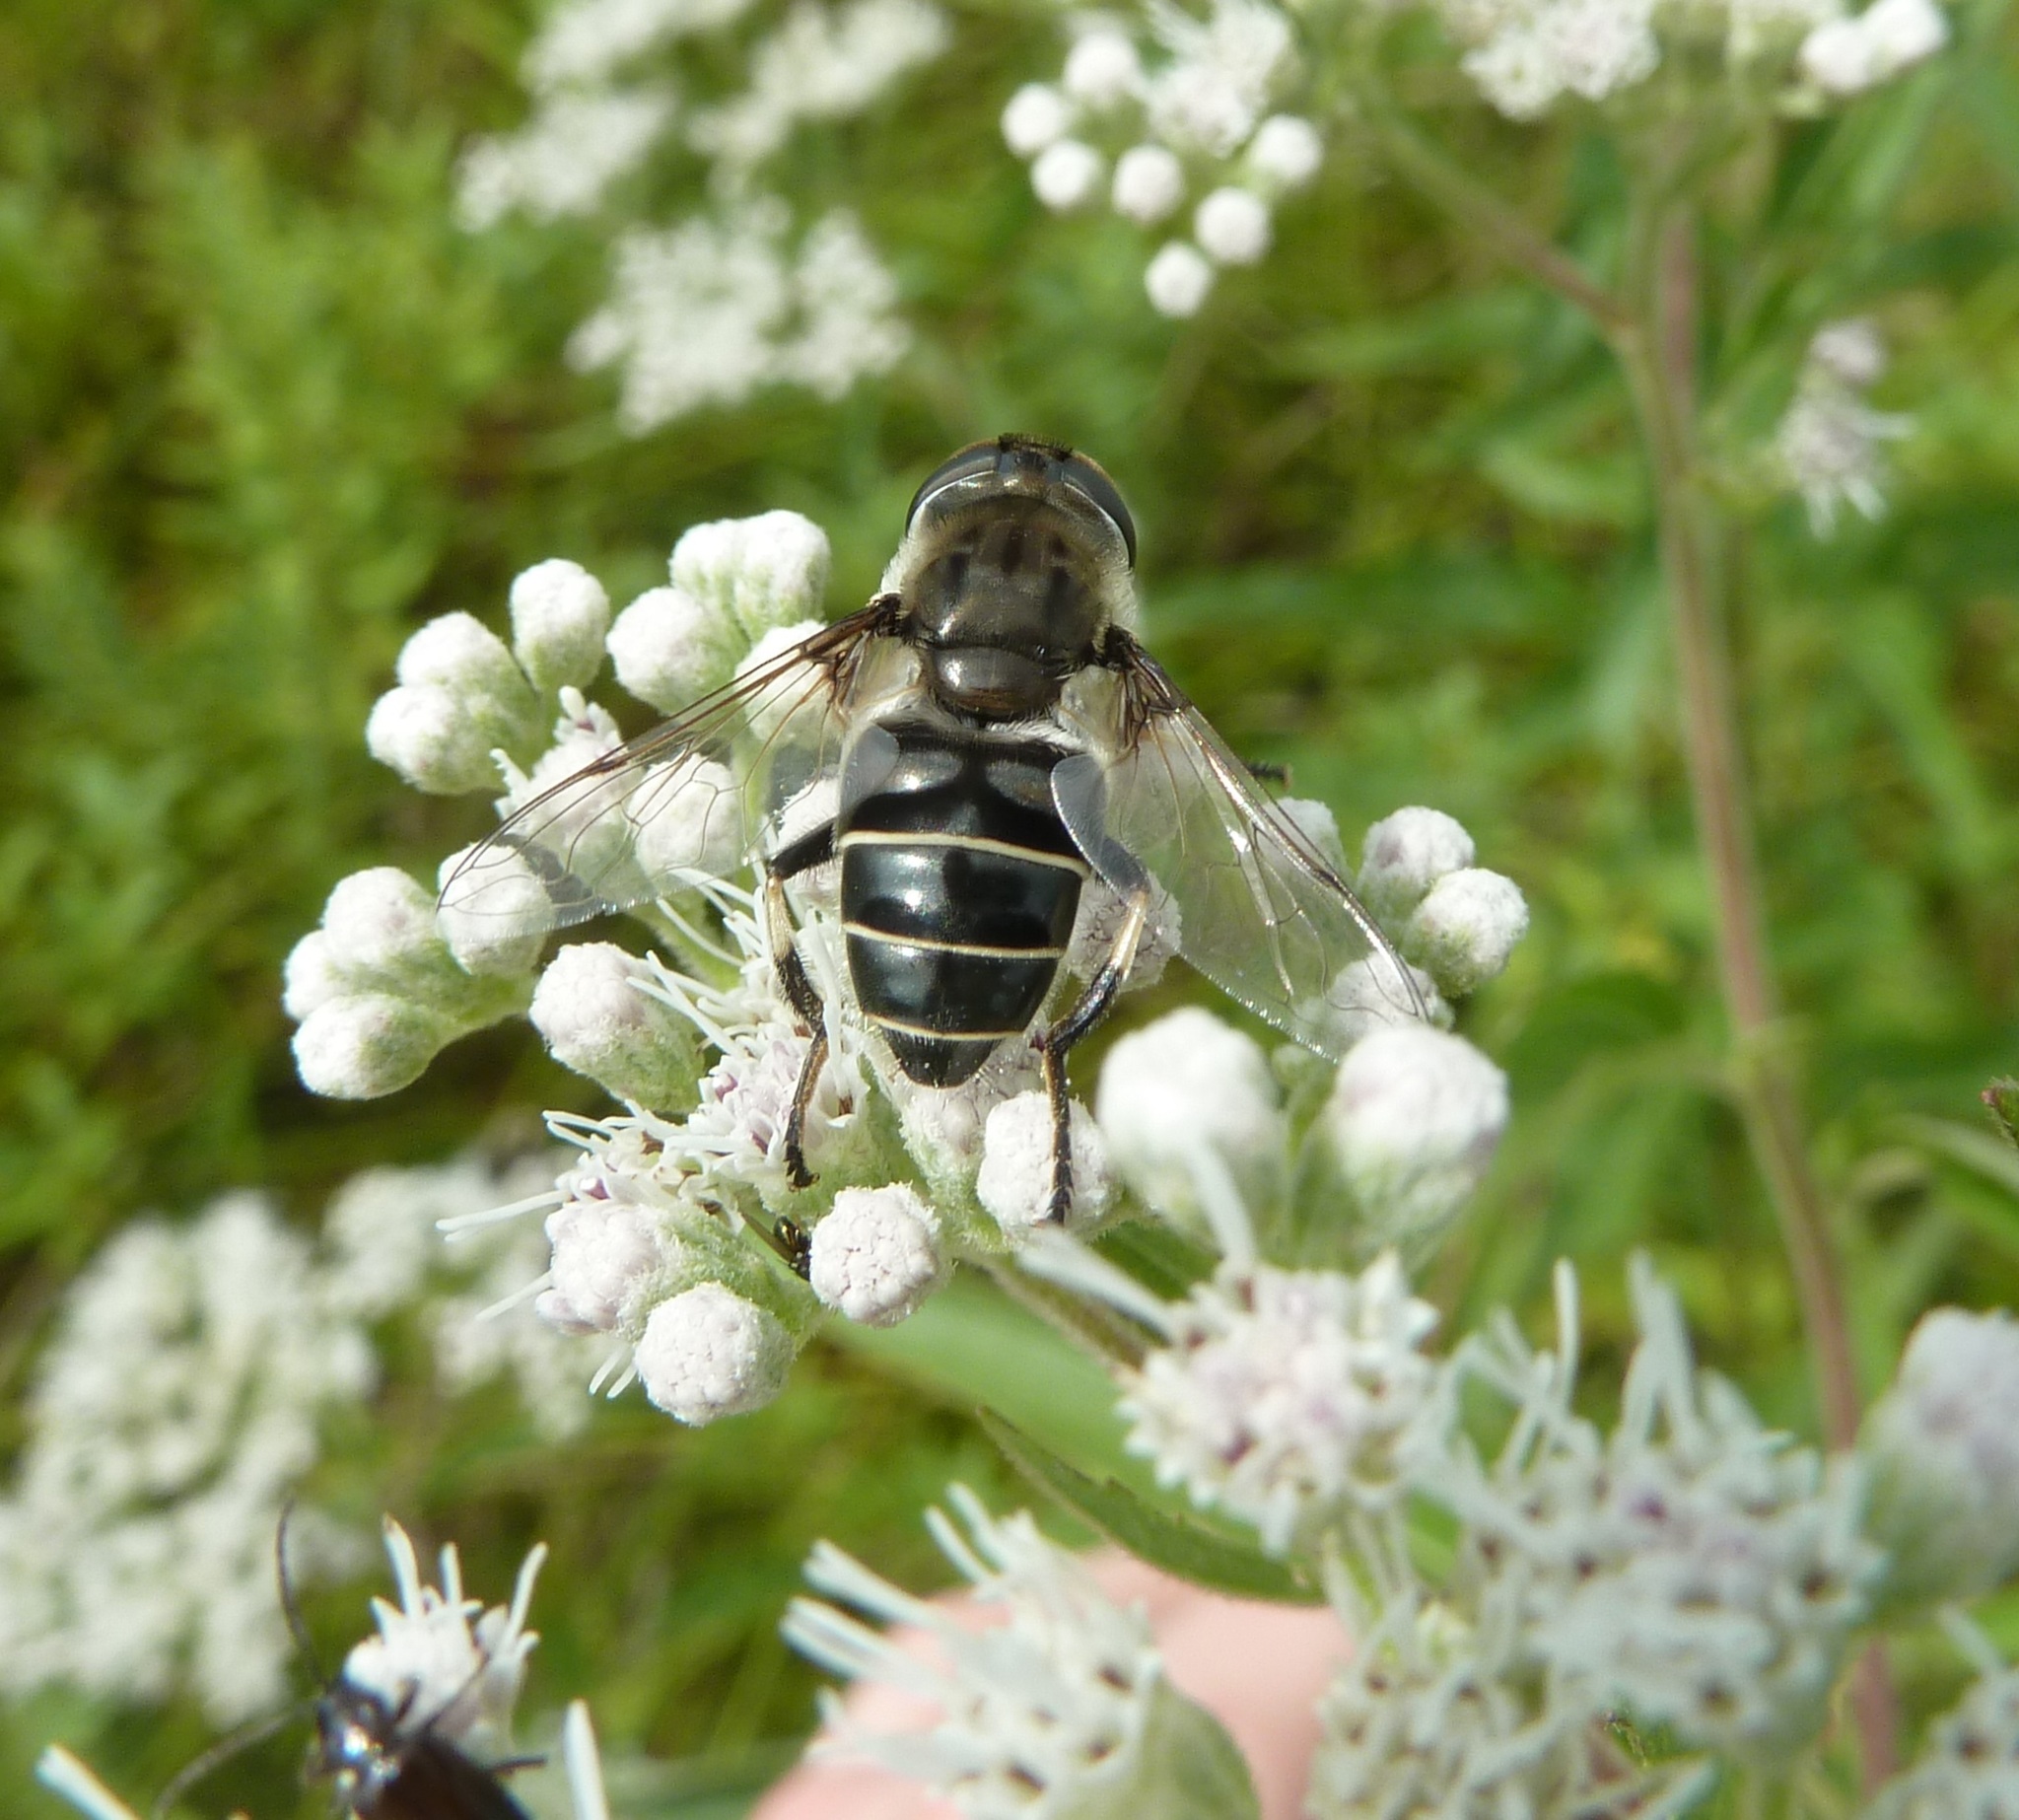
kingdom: Animalia
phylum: Arthropoda
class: Insecta
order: Diptera
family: Syrphidae
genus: Eristalis
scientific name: Eristalis dimidiata
